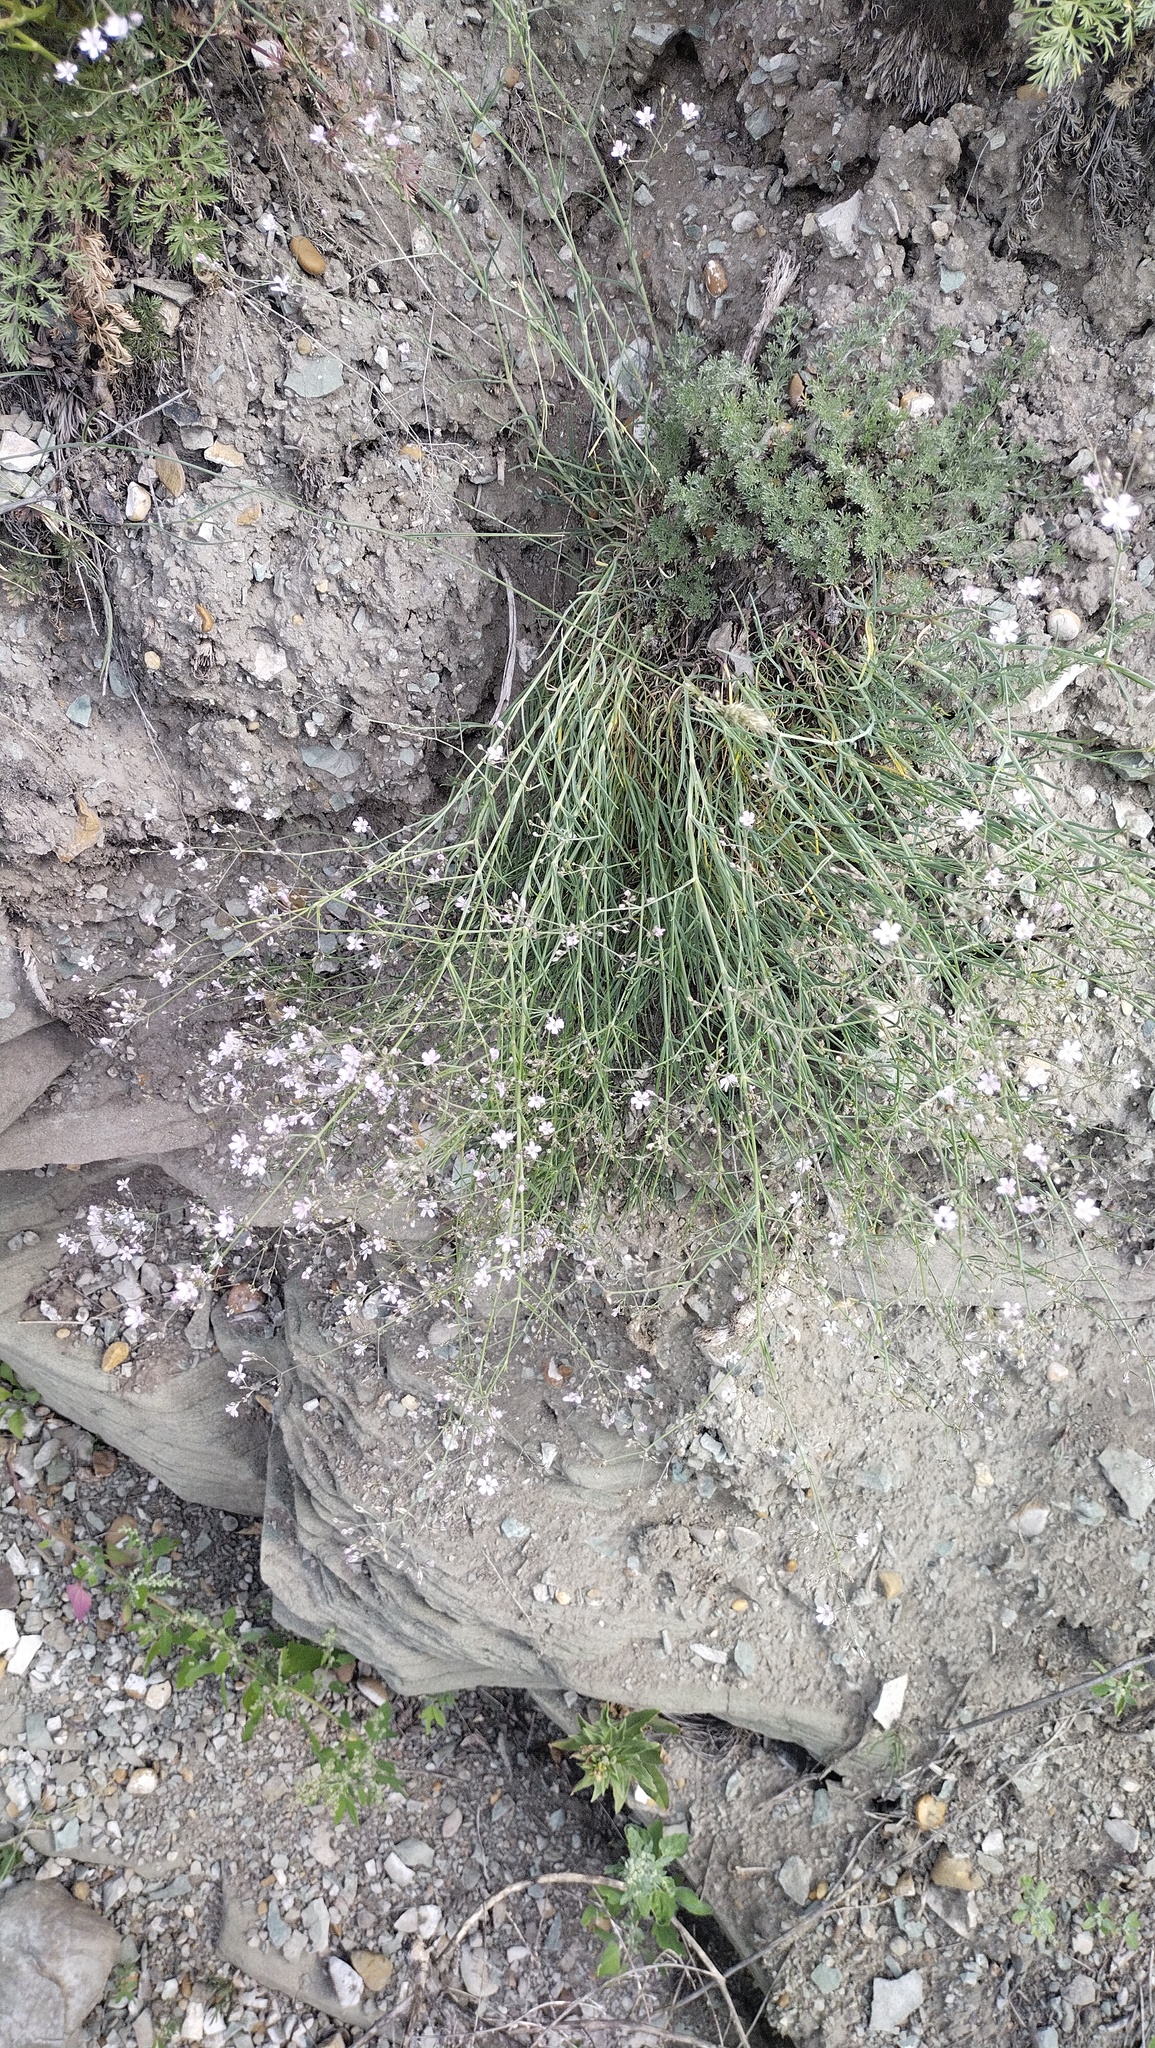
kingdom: Plantae
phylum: Tracheophyta
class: Magnoliopsida
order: Caryophyllales
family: Caryophyllaceae
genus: Gypsophila
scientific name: Gypsophila patrinii
